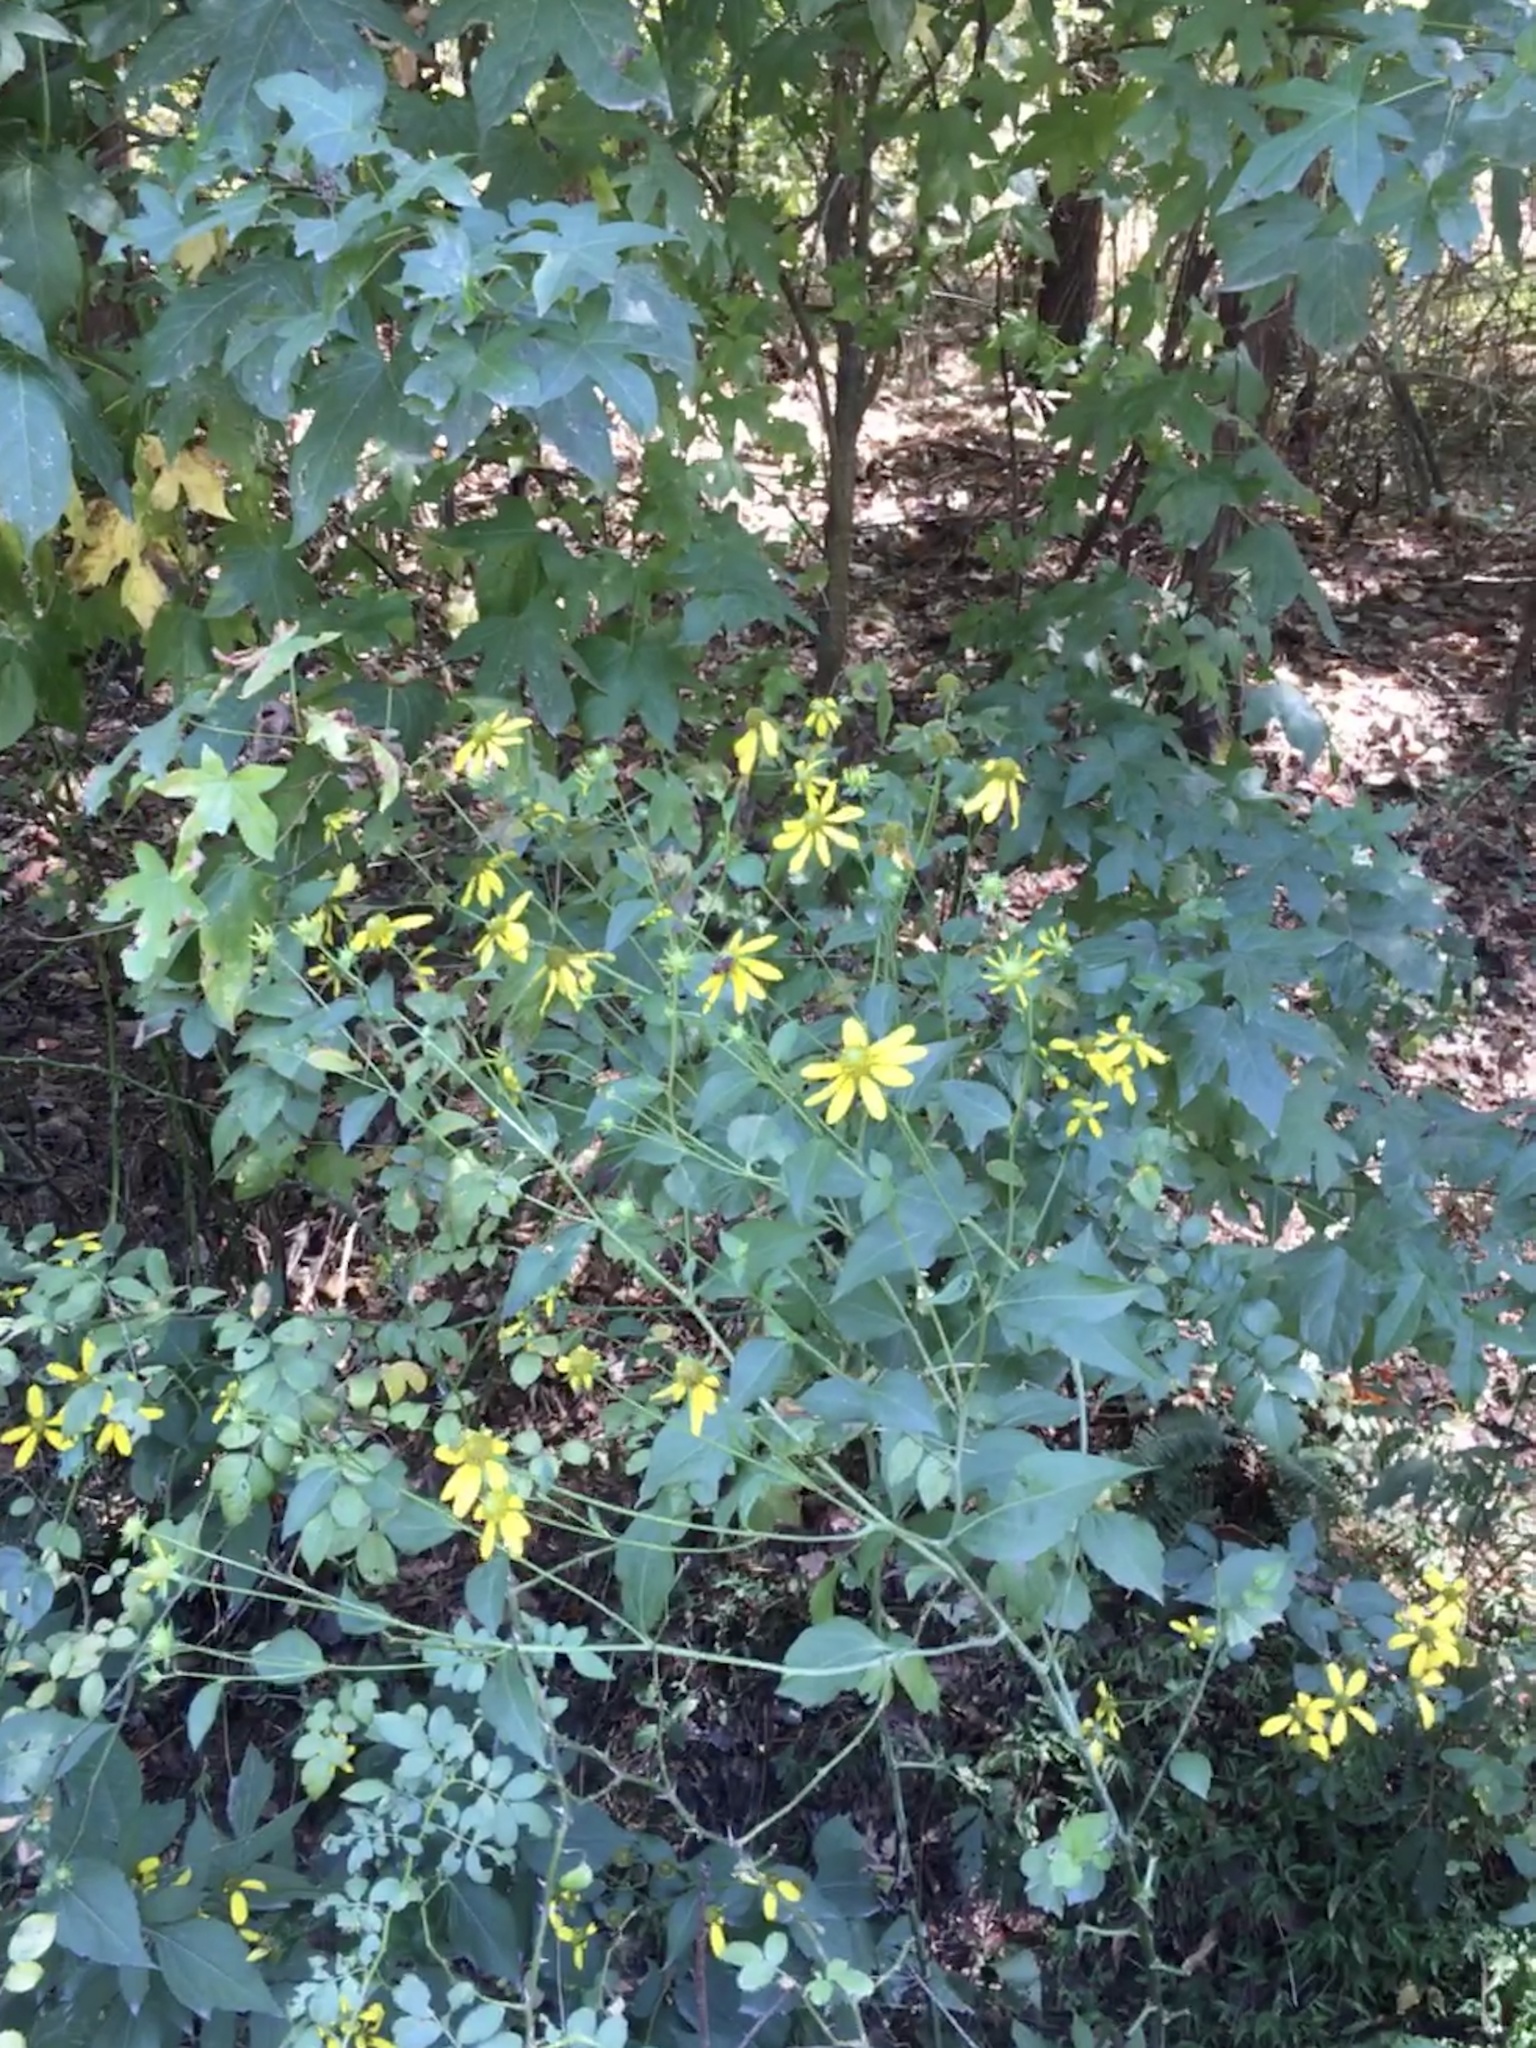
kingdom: Plantae
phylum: Tracheophyta
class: Magnoliopsida
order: Asterales
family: Asteraceae
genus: Rudbeckia
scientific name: Rudbeckia laciniata
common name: Coneflower
